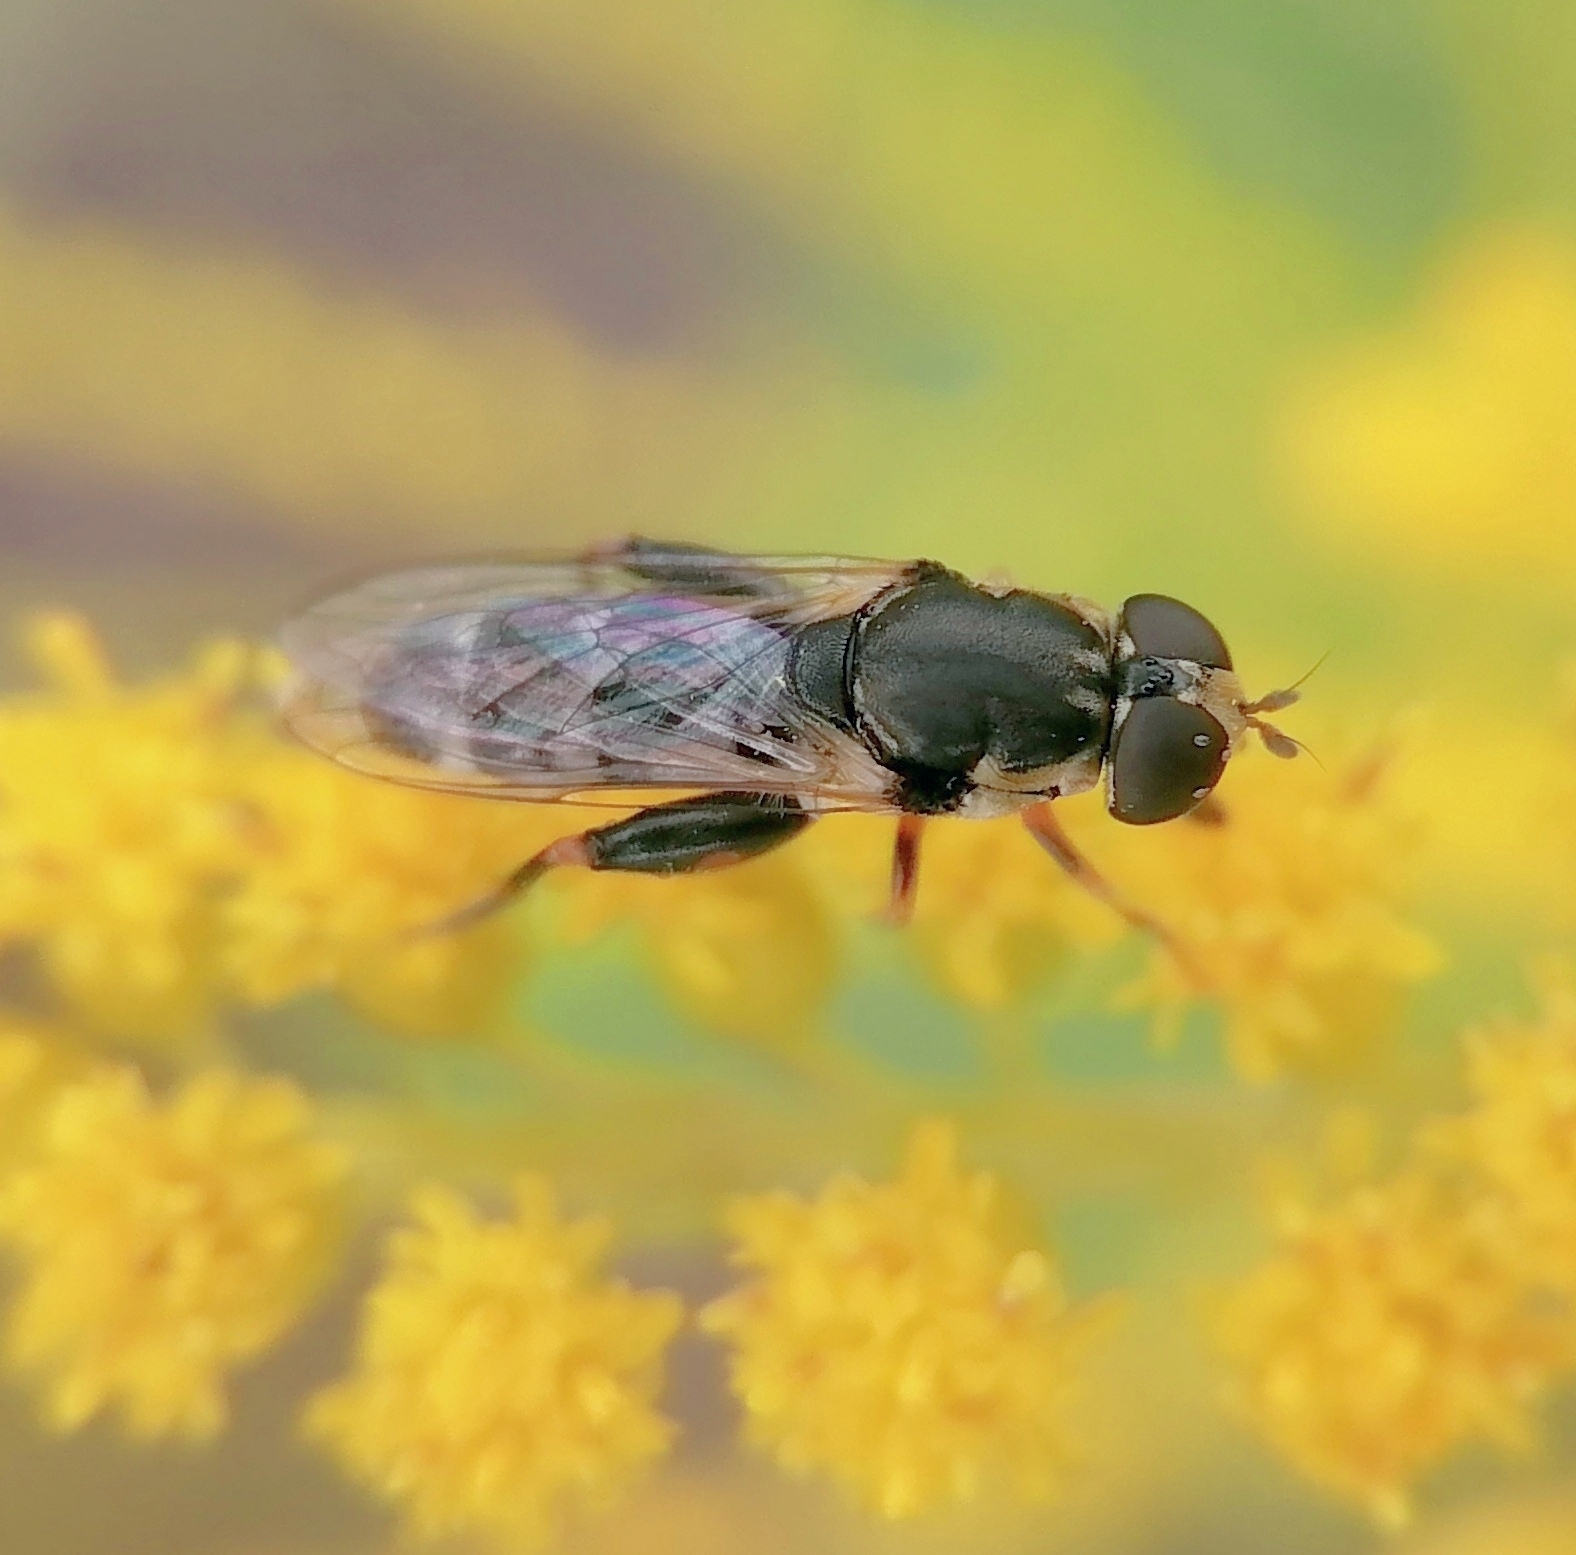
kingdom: Animalia
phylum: Arthropoda
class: Insecta
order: Diptera
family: Syrphidae
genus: Syritta
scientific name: Syritta pipiens
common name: Hover fly
